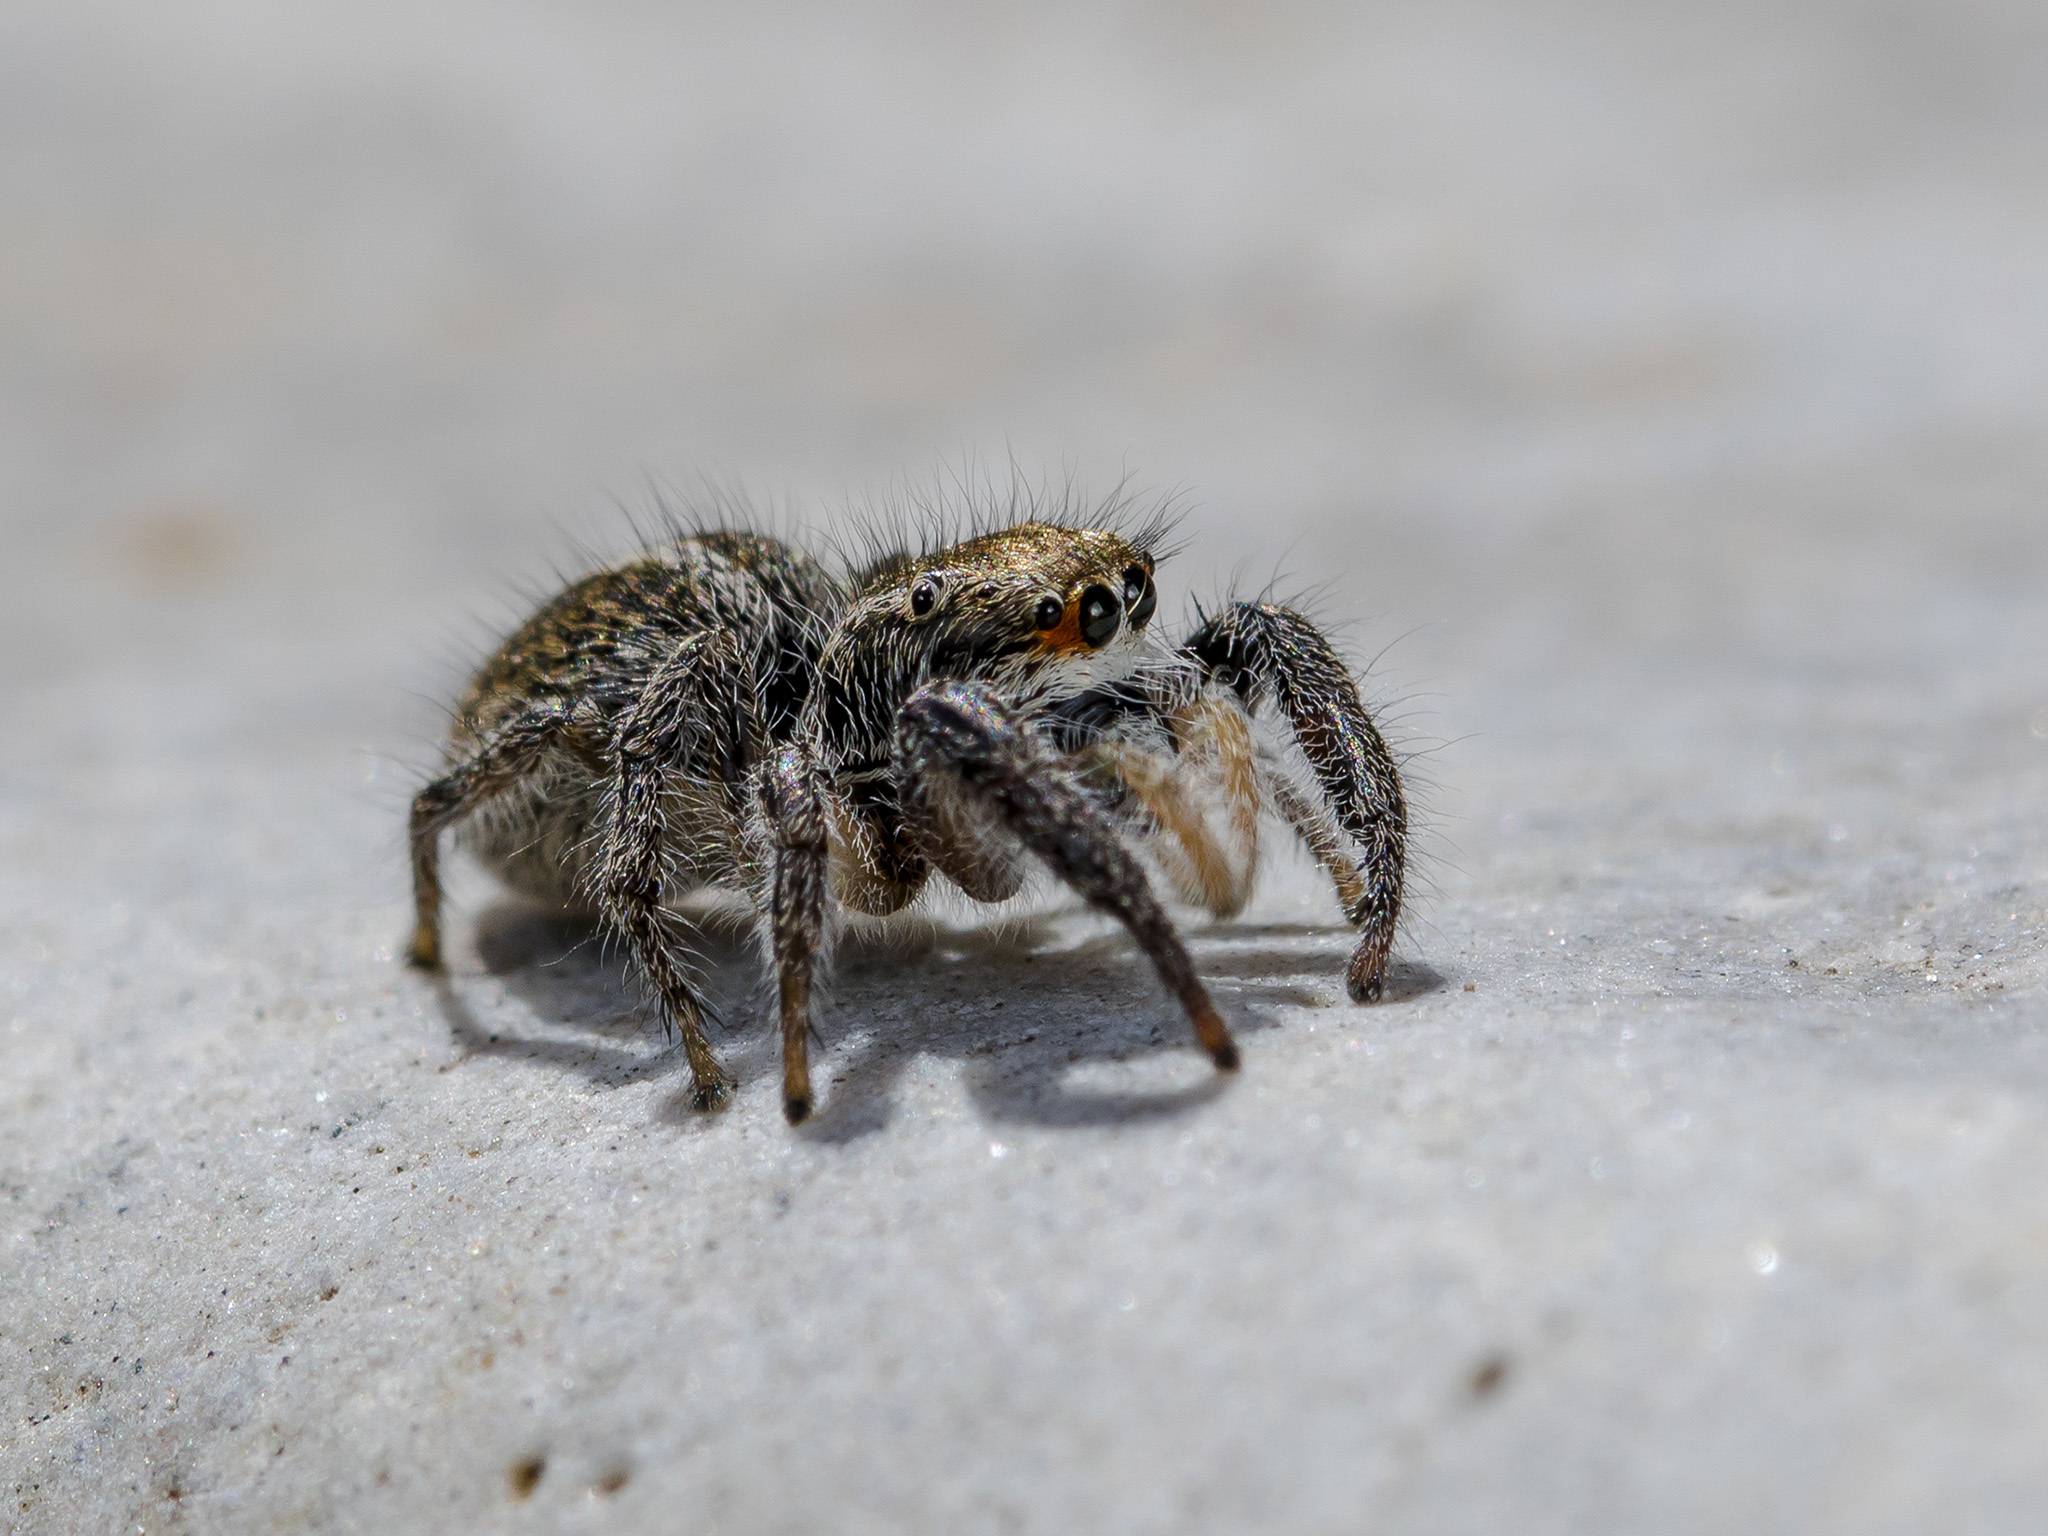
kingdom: Animalia
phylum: Arthropoda
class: Arachnida
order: Araneae
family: Salticidae
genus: Pellenes
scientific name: Pellenes seriatus
